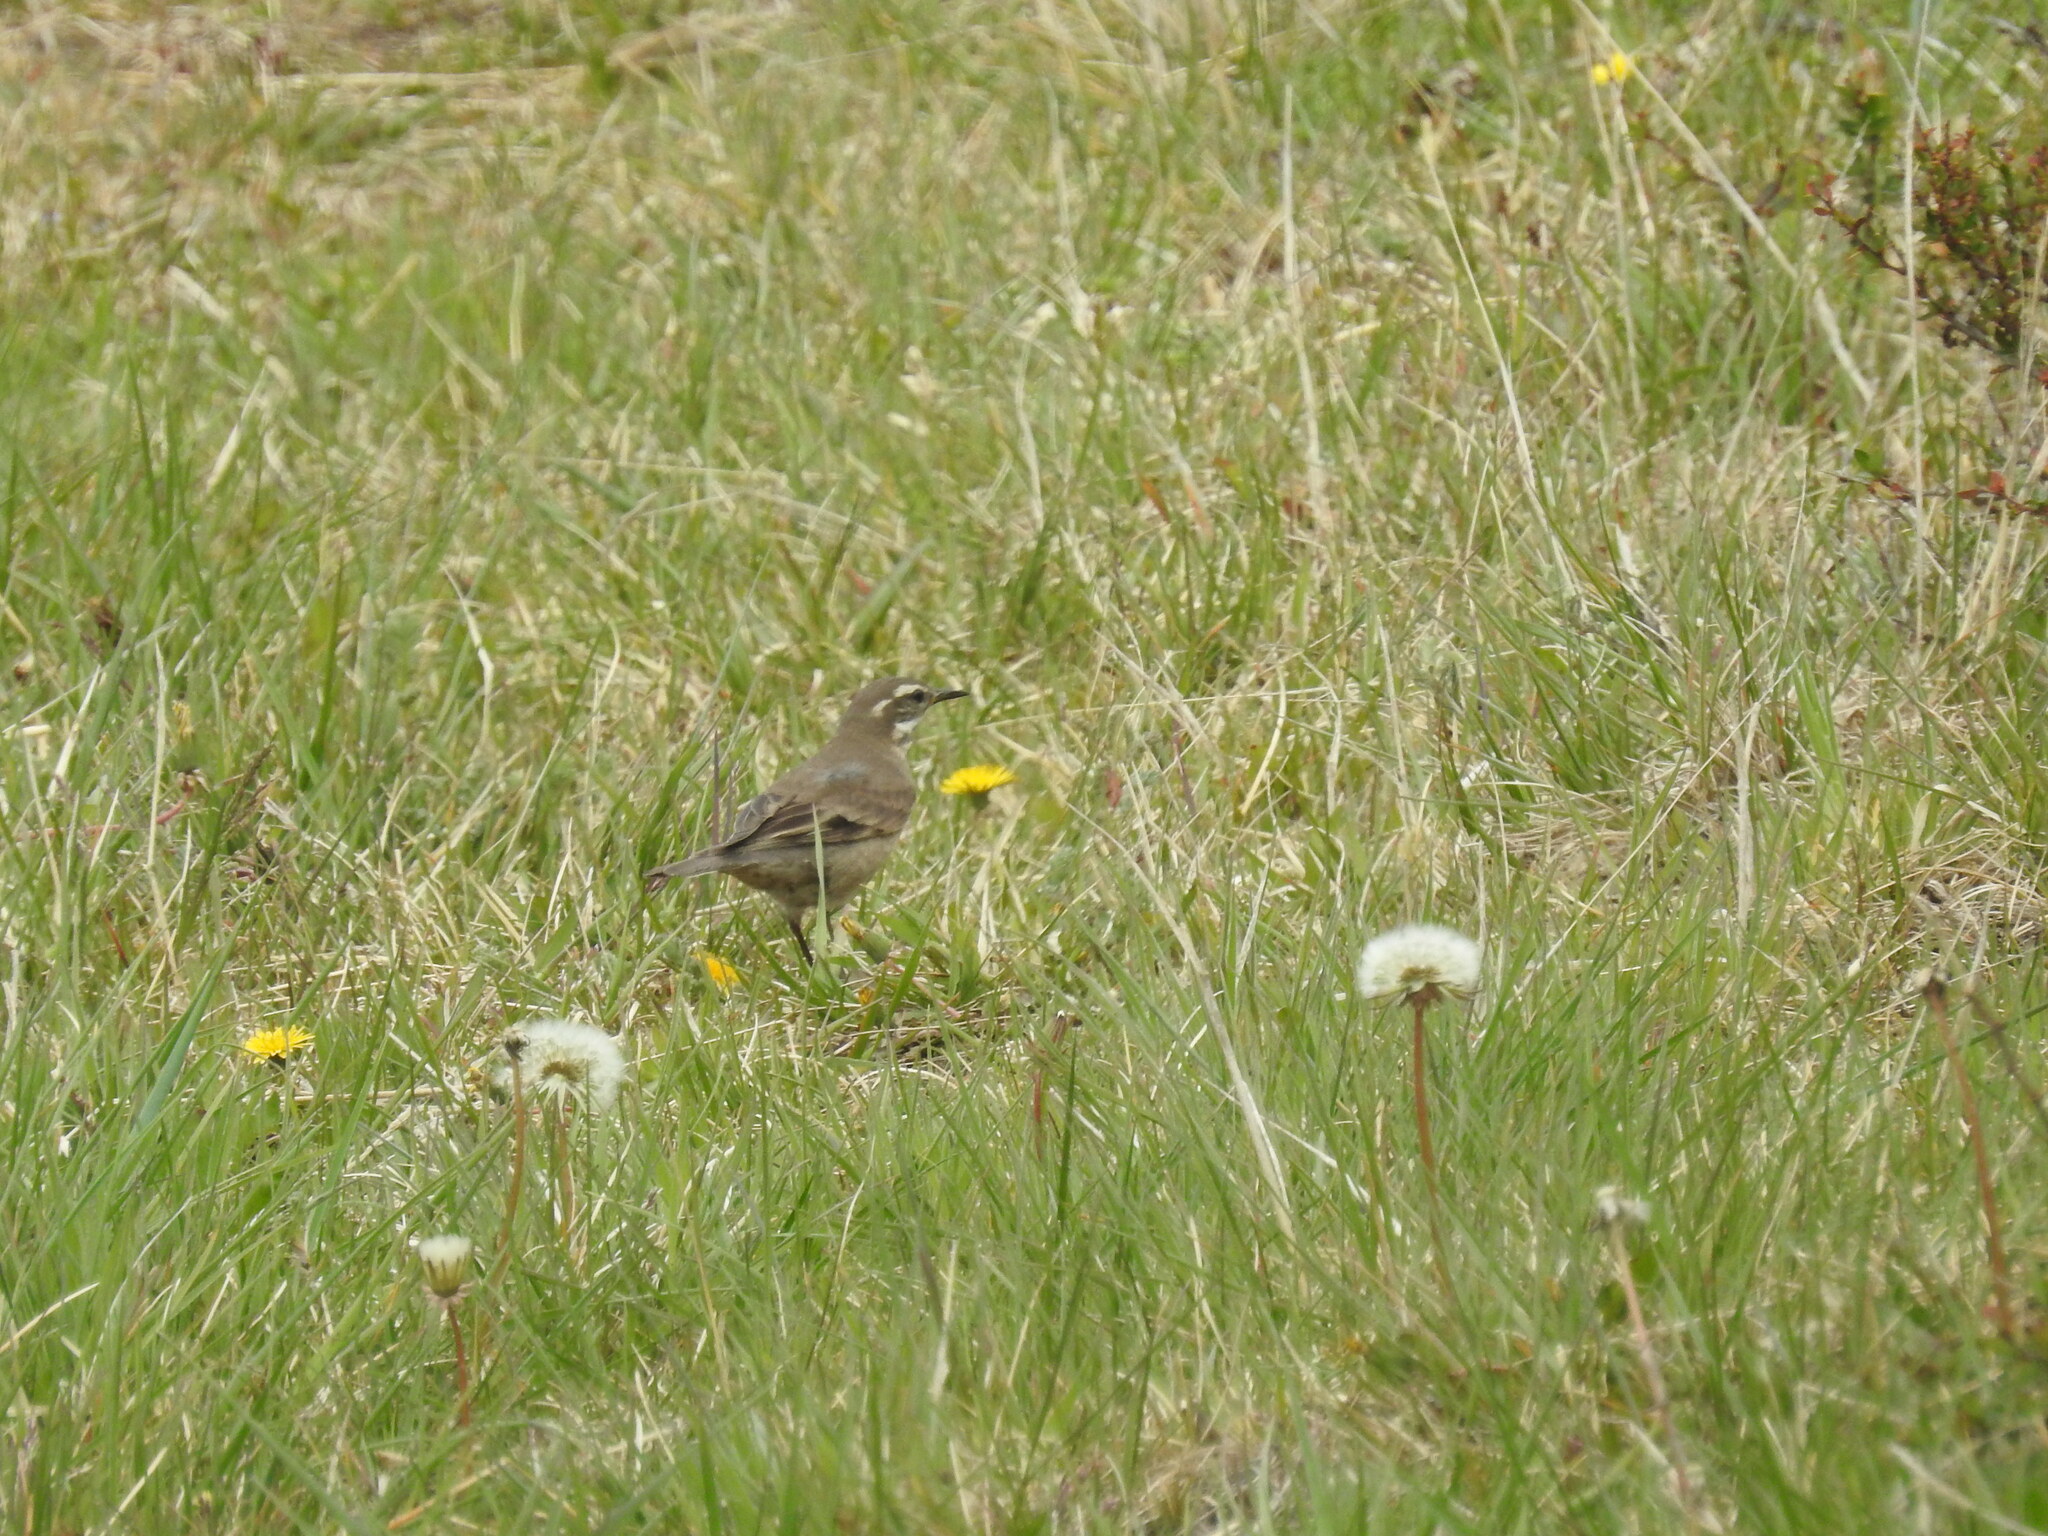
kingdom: Animalia
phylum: Chordata
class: Aves
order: Passeriformes
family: Furnariidae
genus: Cinclodes
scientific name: Cinclodes fuscus
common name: Buff-winged cinclodes
